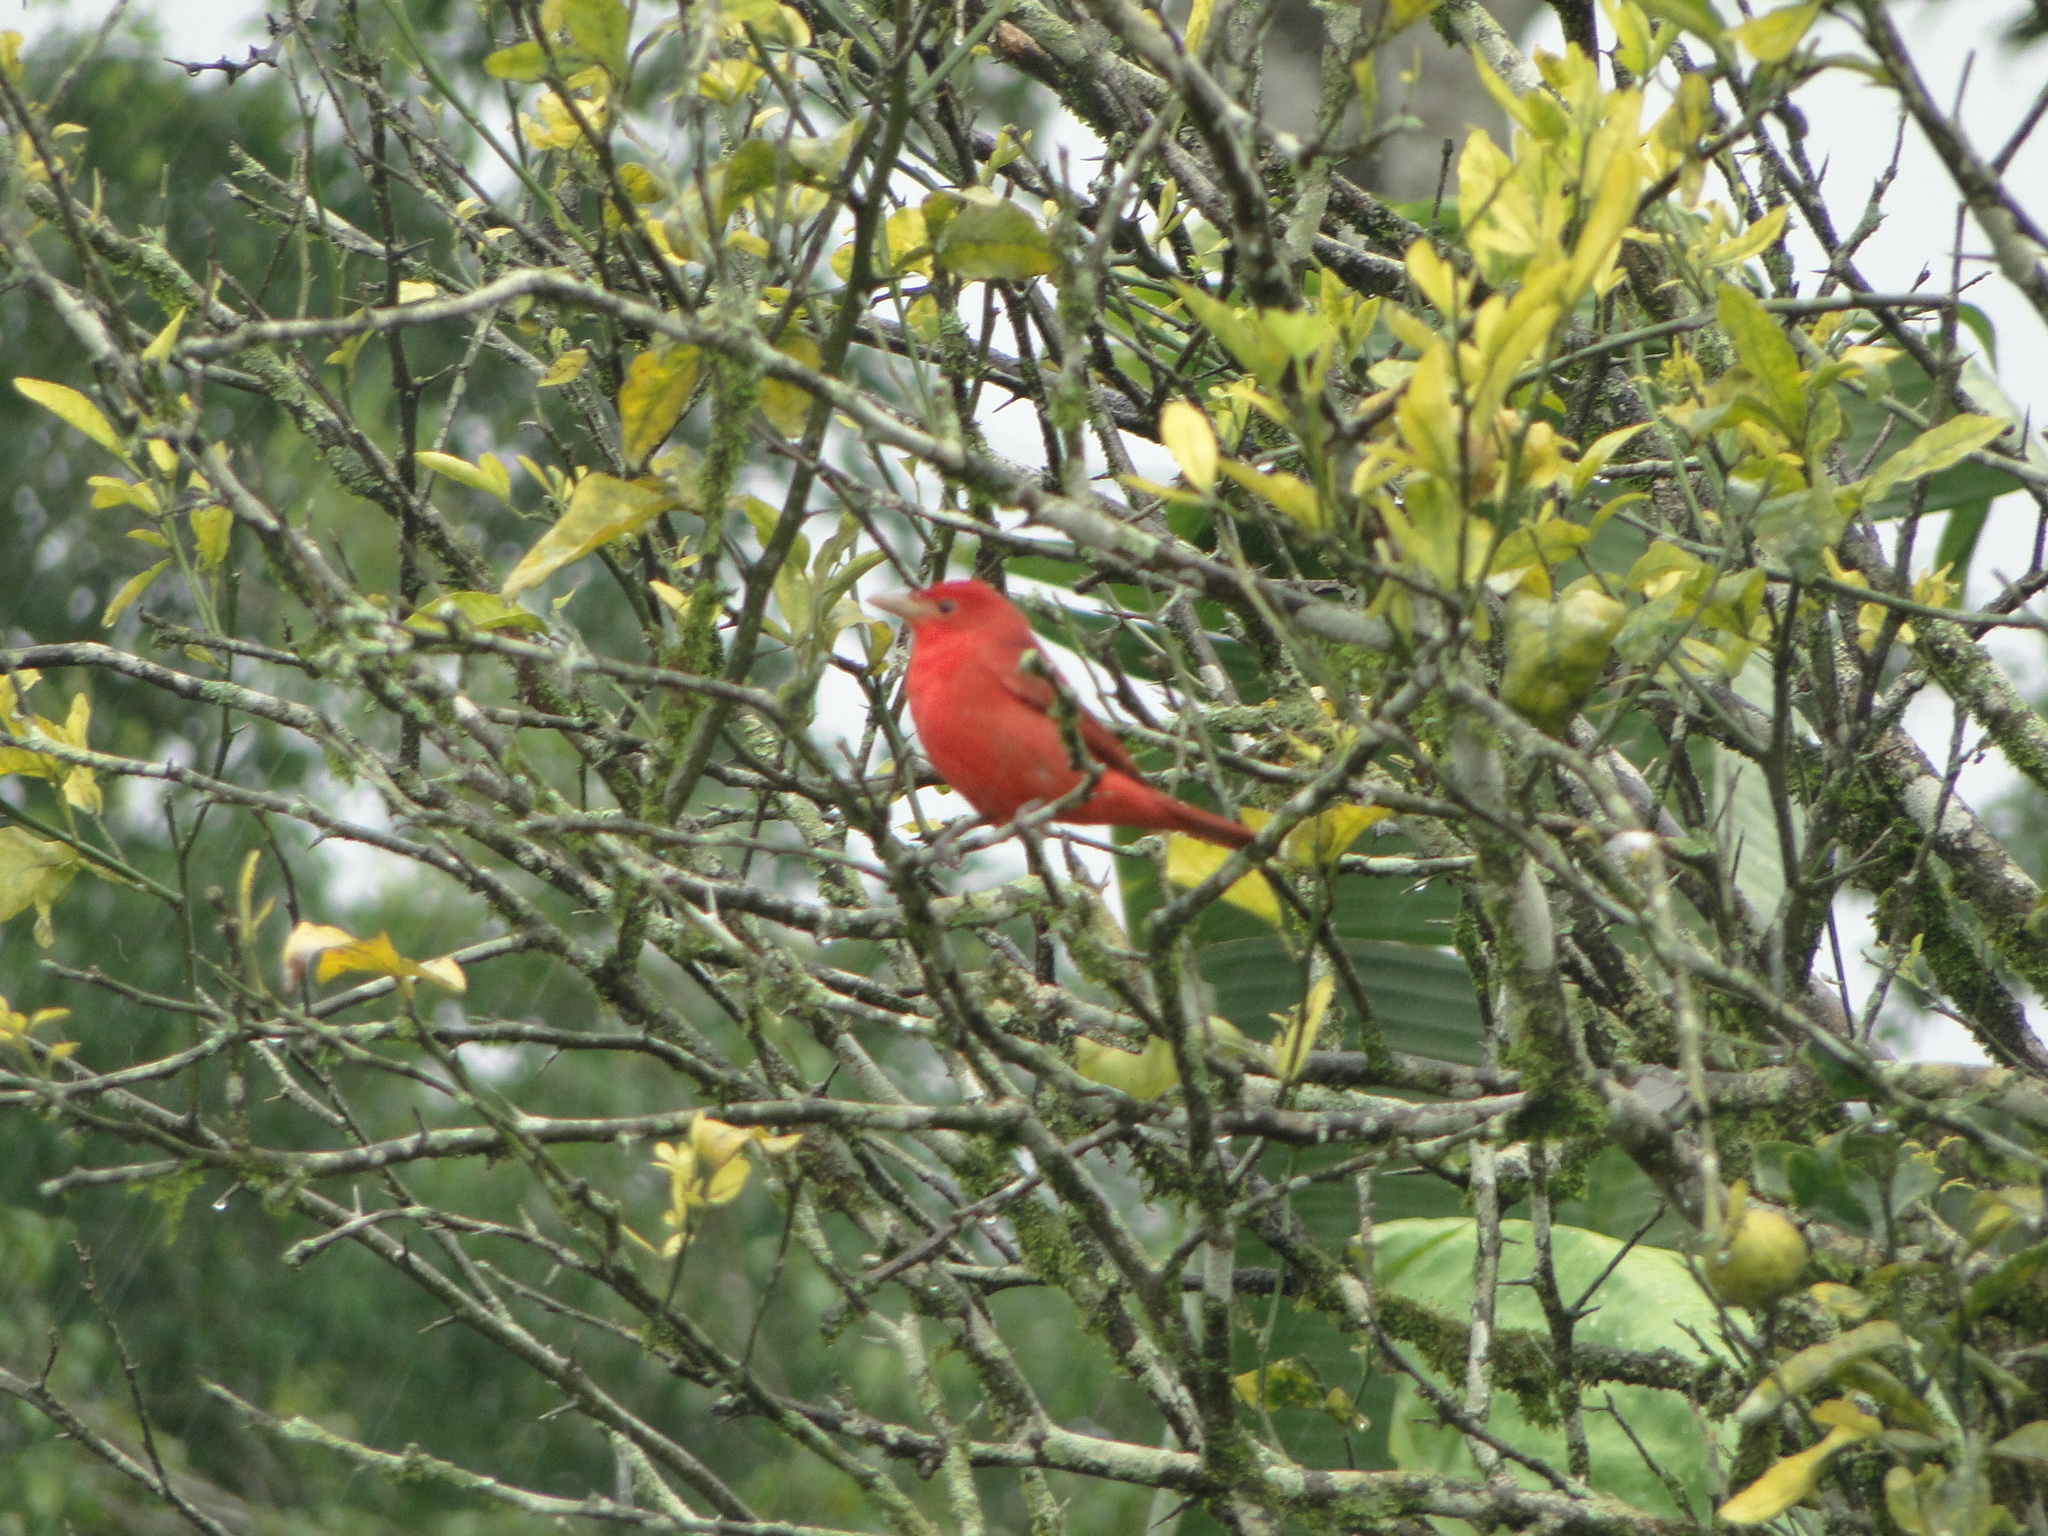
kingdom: Animalia
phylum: Chordata
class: Aves
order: Passeriformes
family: Cardinalidae
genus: Piranga
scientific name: Piranga rubra
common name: Summer tanager
